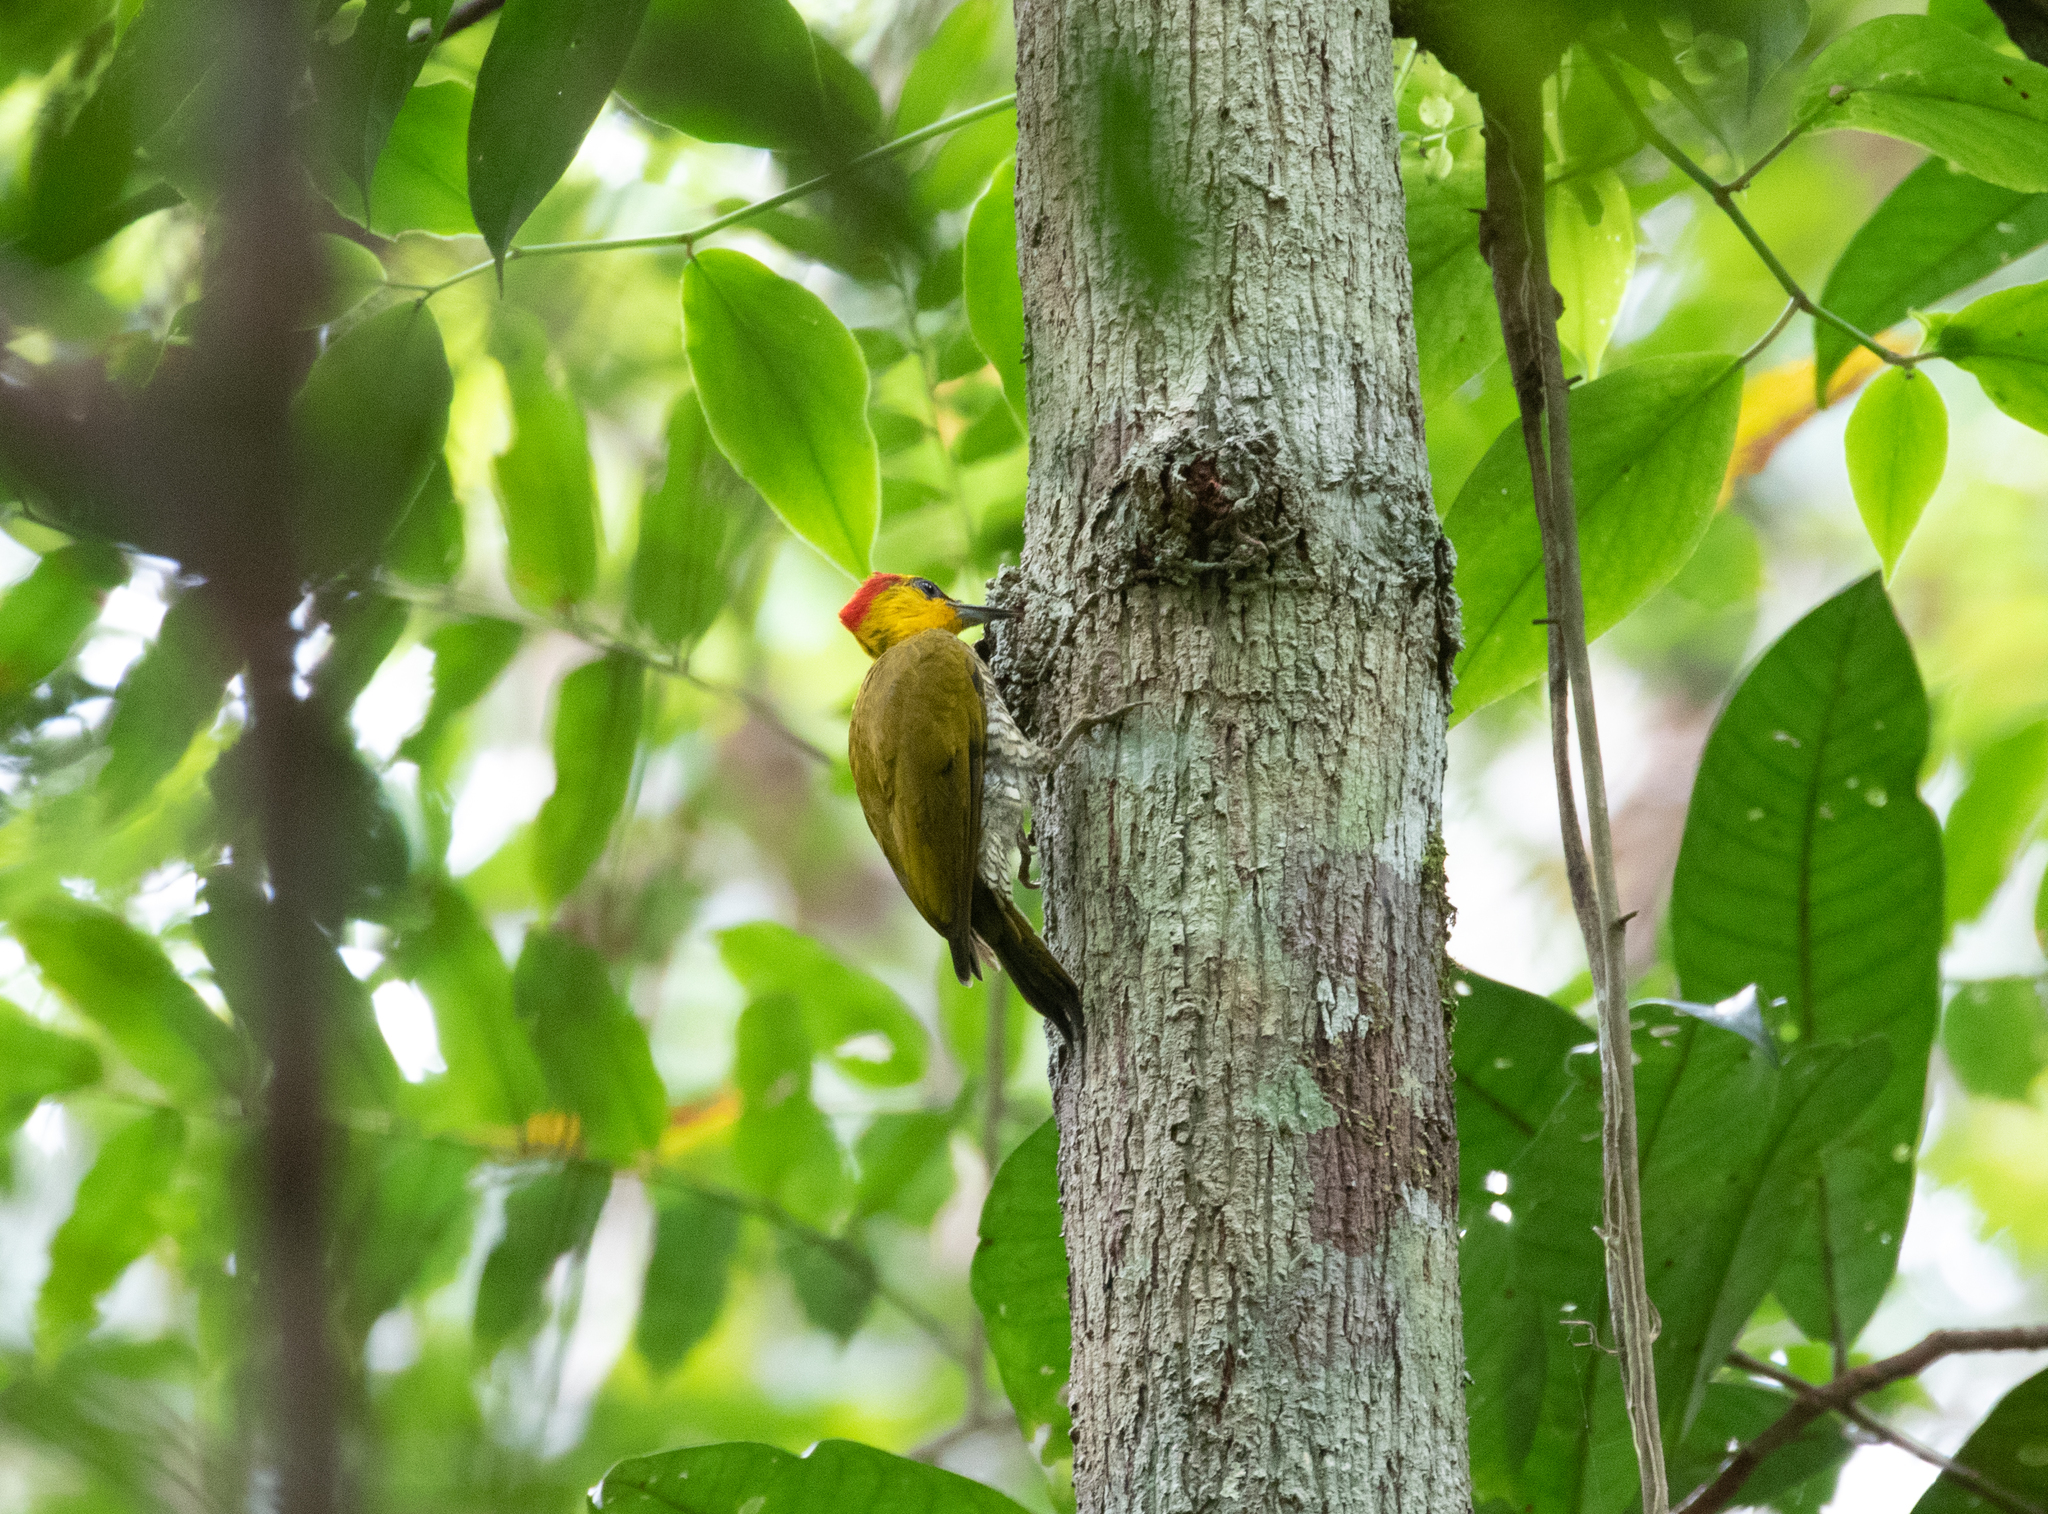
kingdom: Animalia
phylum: Chordata
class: Aves
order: Piciformes
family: Picidae
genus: Piculus
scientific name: Piculus flavigula
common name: Yellow-throated woodpecker
